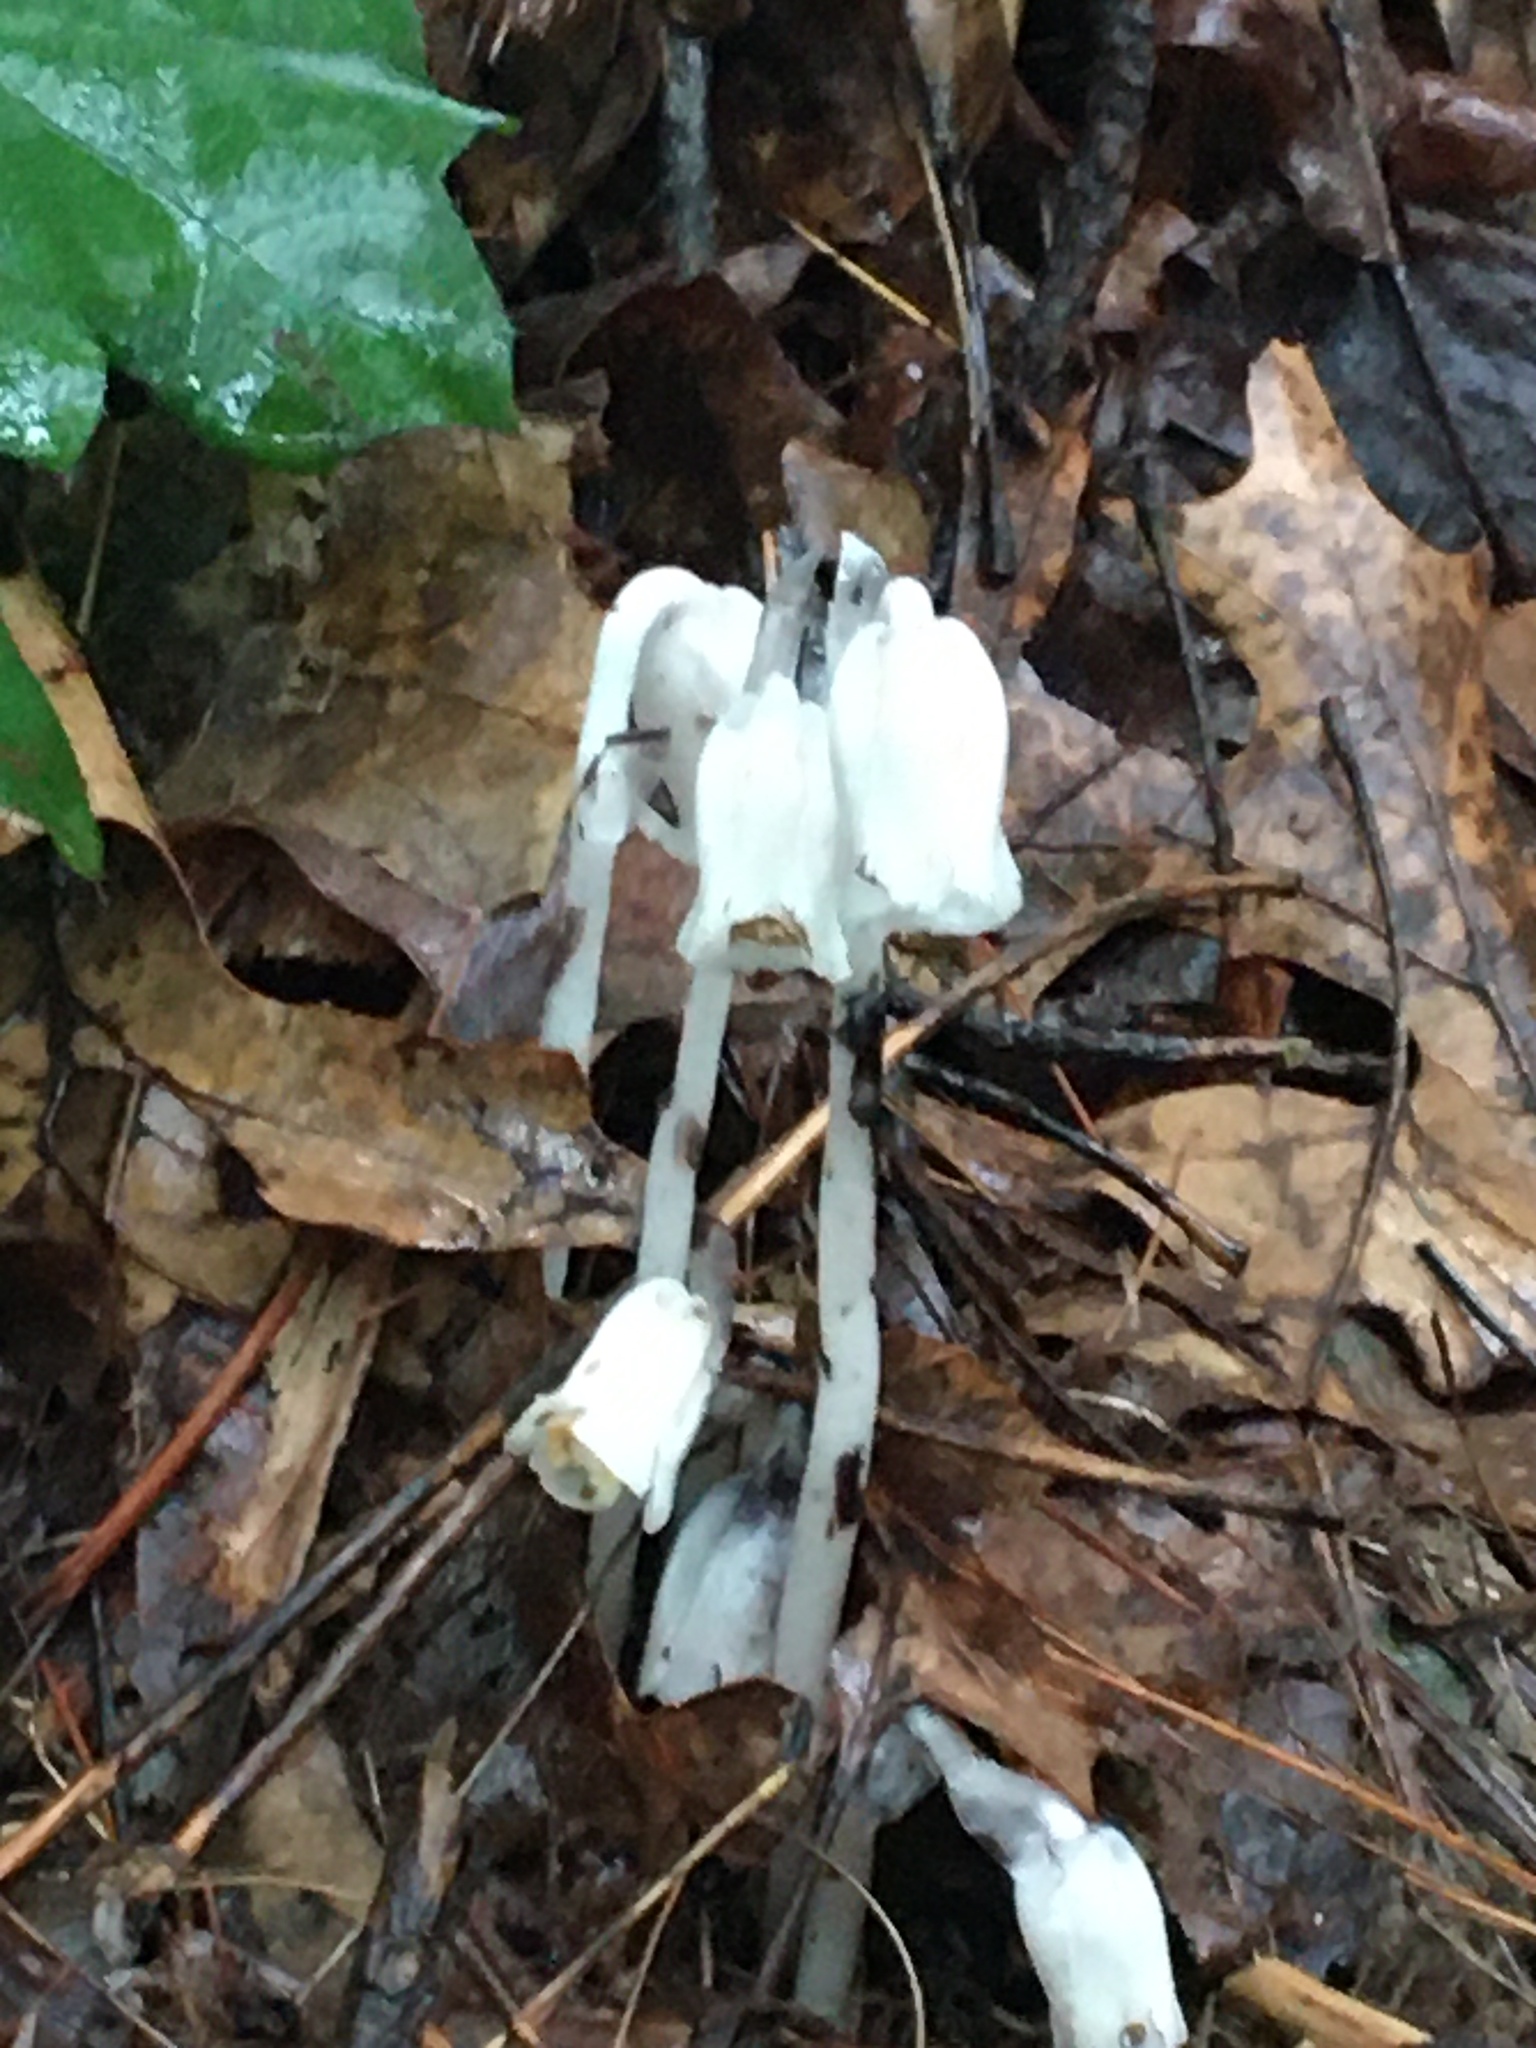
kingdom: Plantae
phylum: Tracheophyta
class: Magnoliopsida
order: Ericales
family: Ericaceae
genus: Monotropa
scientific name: Monotropa uniflora
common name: Convulsion root
